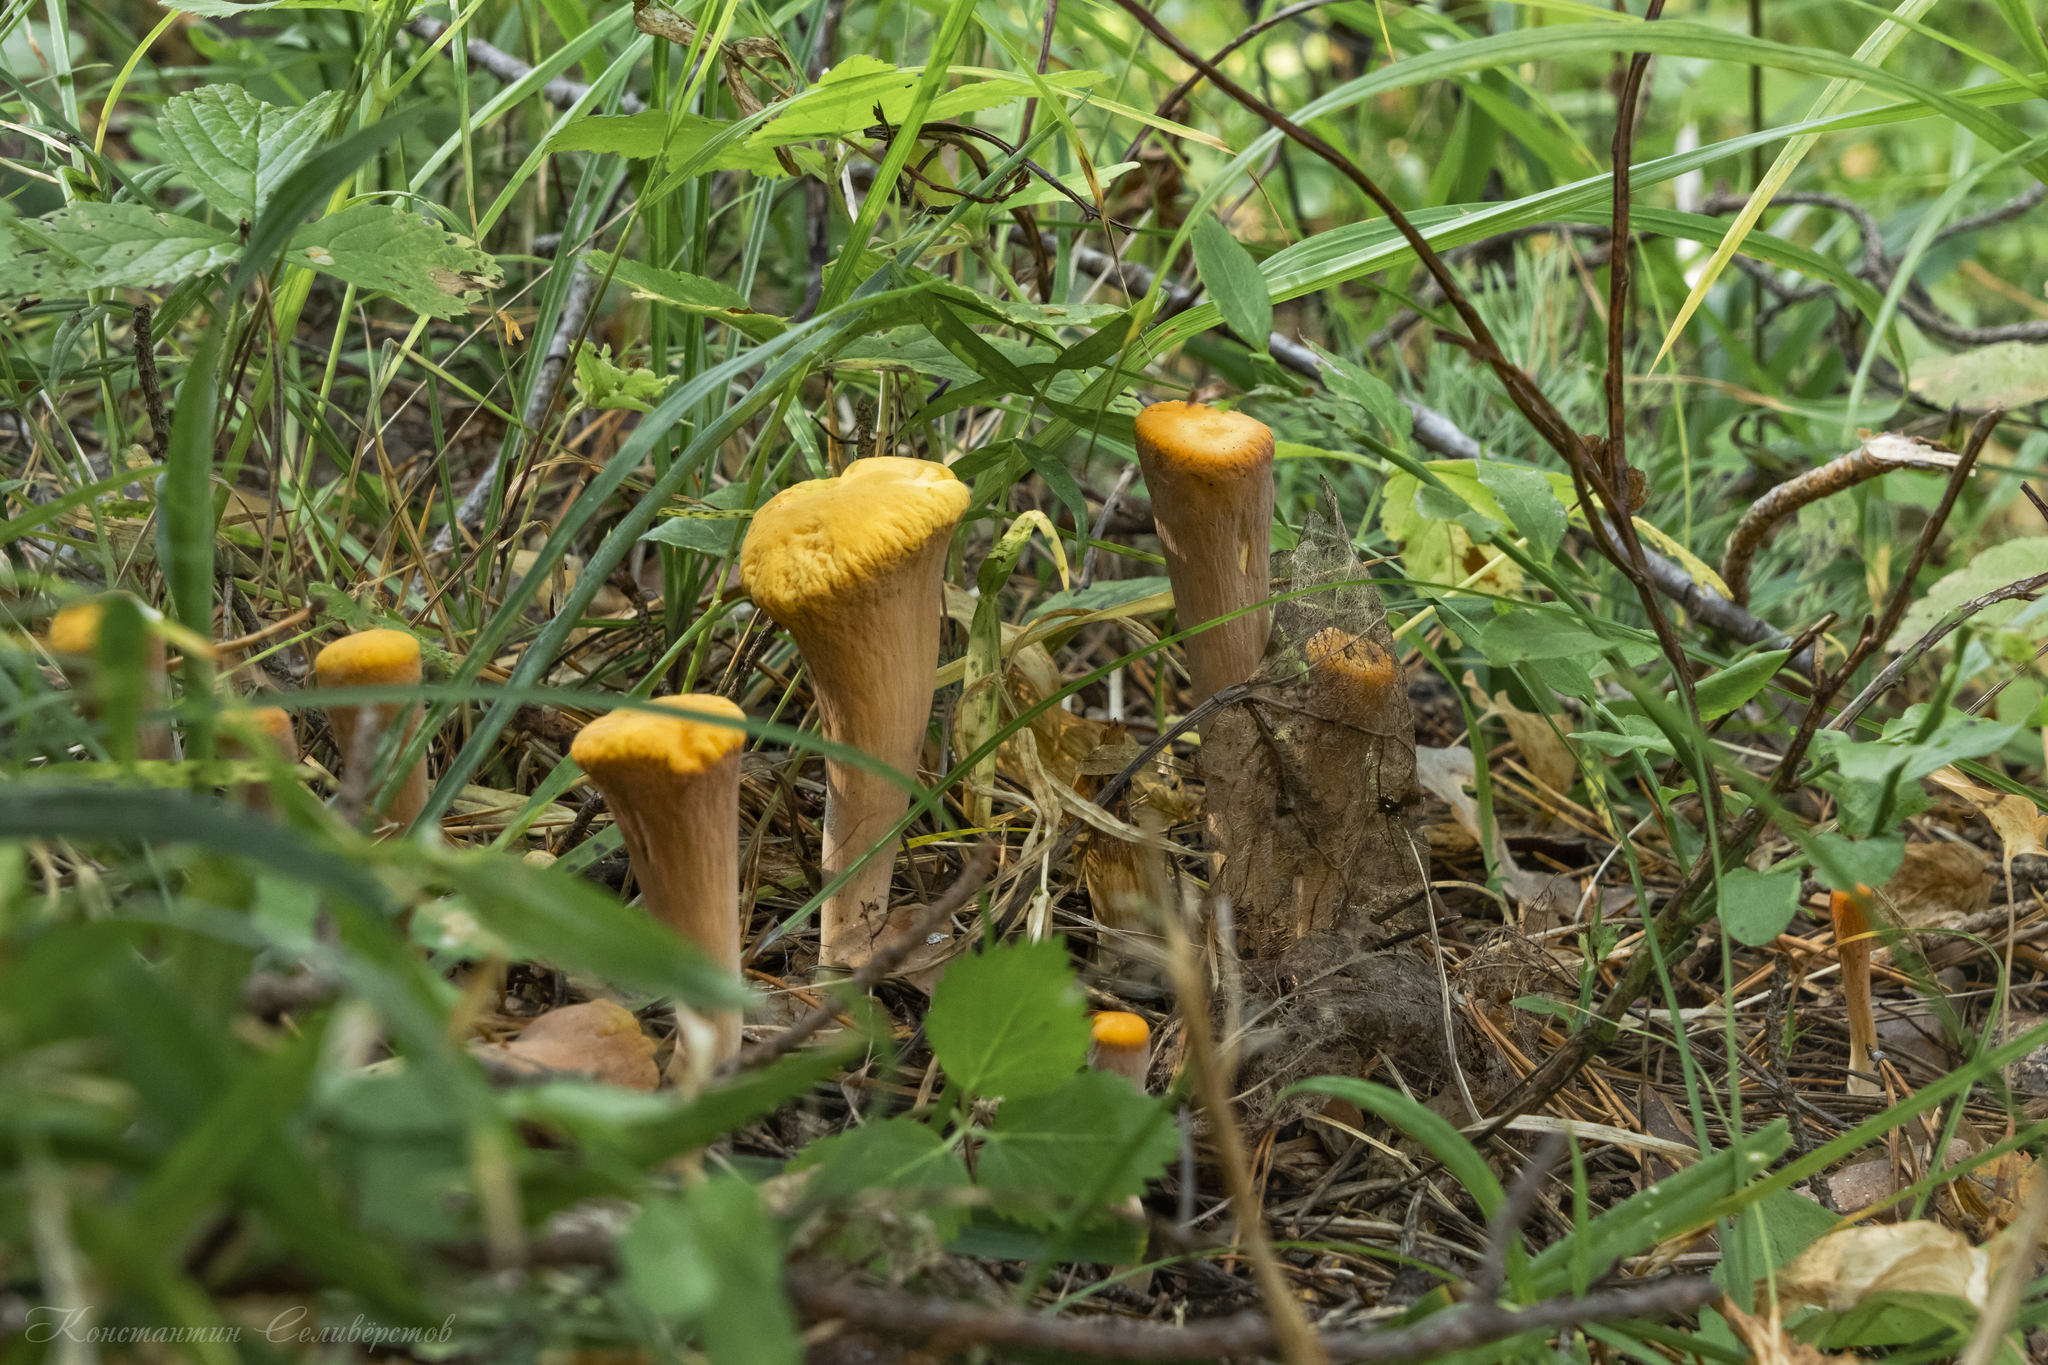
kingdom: Fungi
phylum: Basidiomycota
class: Agaricomycetes
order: Gomphales
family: Clavariadelphaceae
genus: Clavariadelphus
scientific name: Clavariadelphus truncatus
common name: Truncated club
